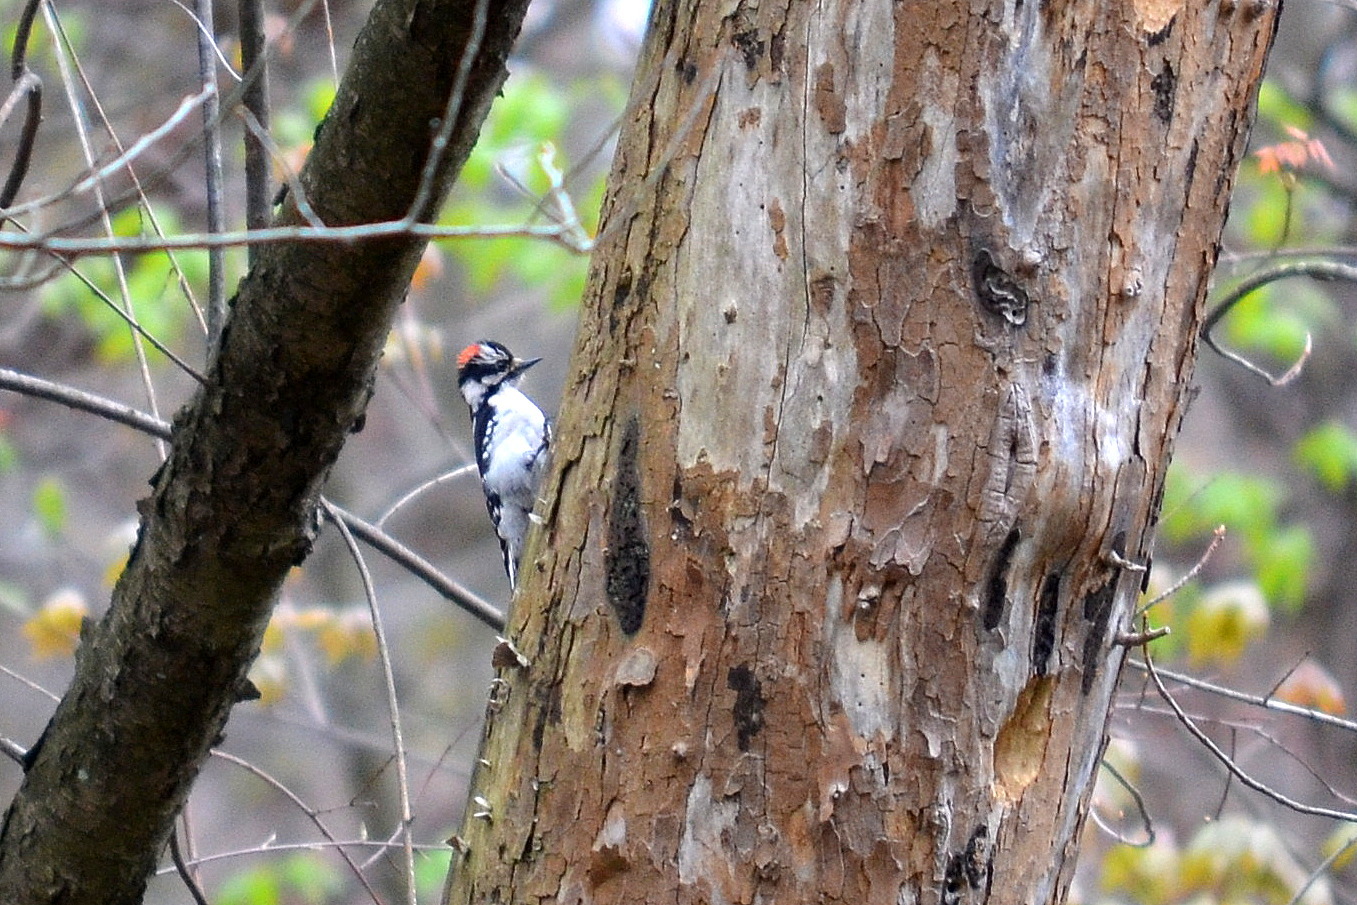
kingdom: Animalia
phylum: Chordata
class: Aves
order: Piciformes
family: Picidae
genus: Leuconotopicus
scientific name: Leuconotopicus villosus
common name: Hairy woodpecker
